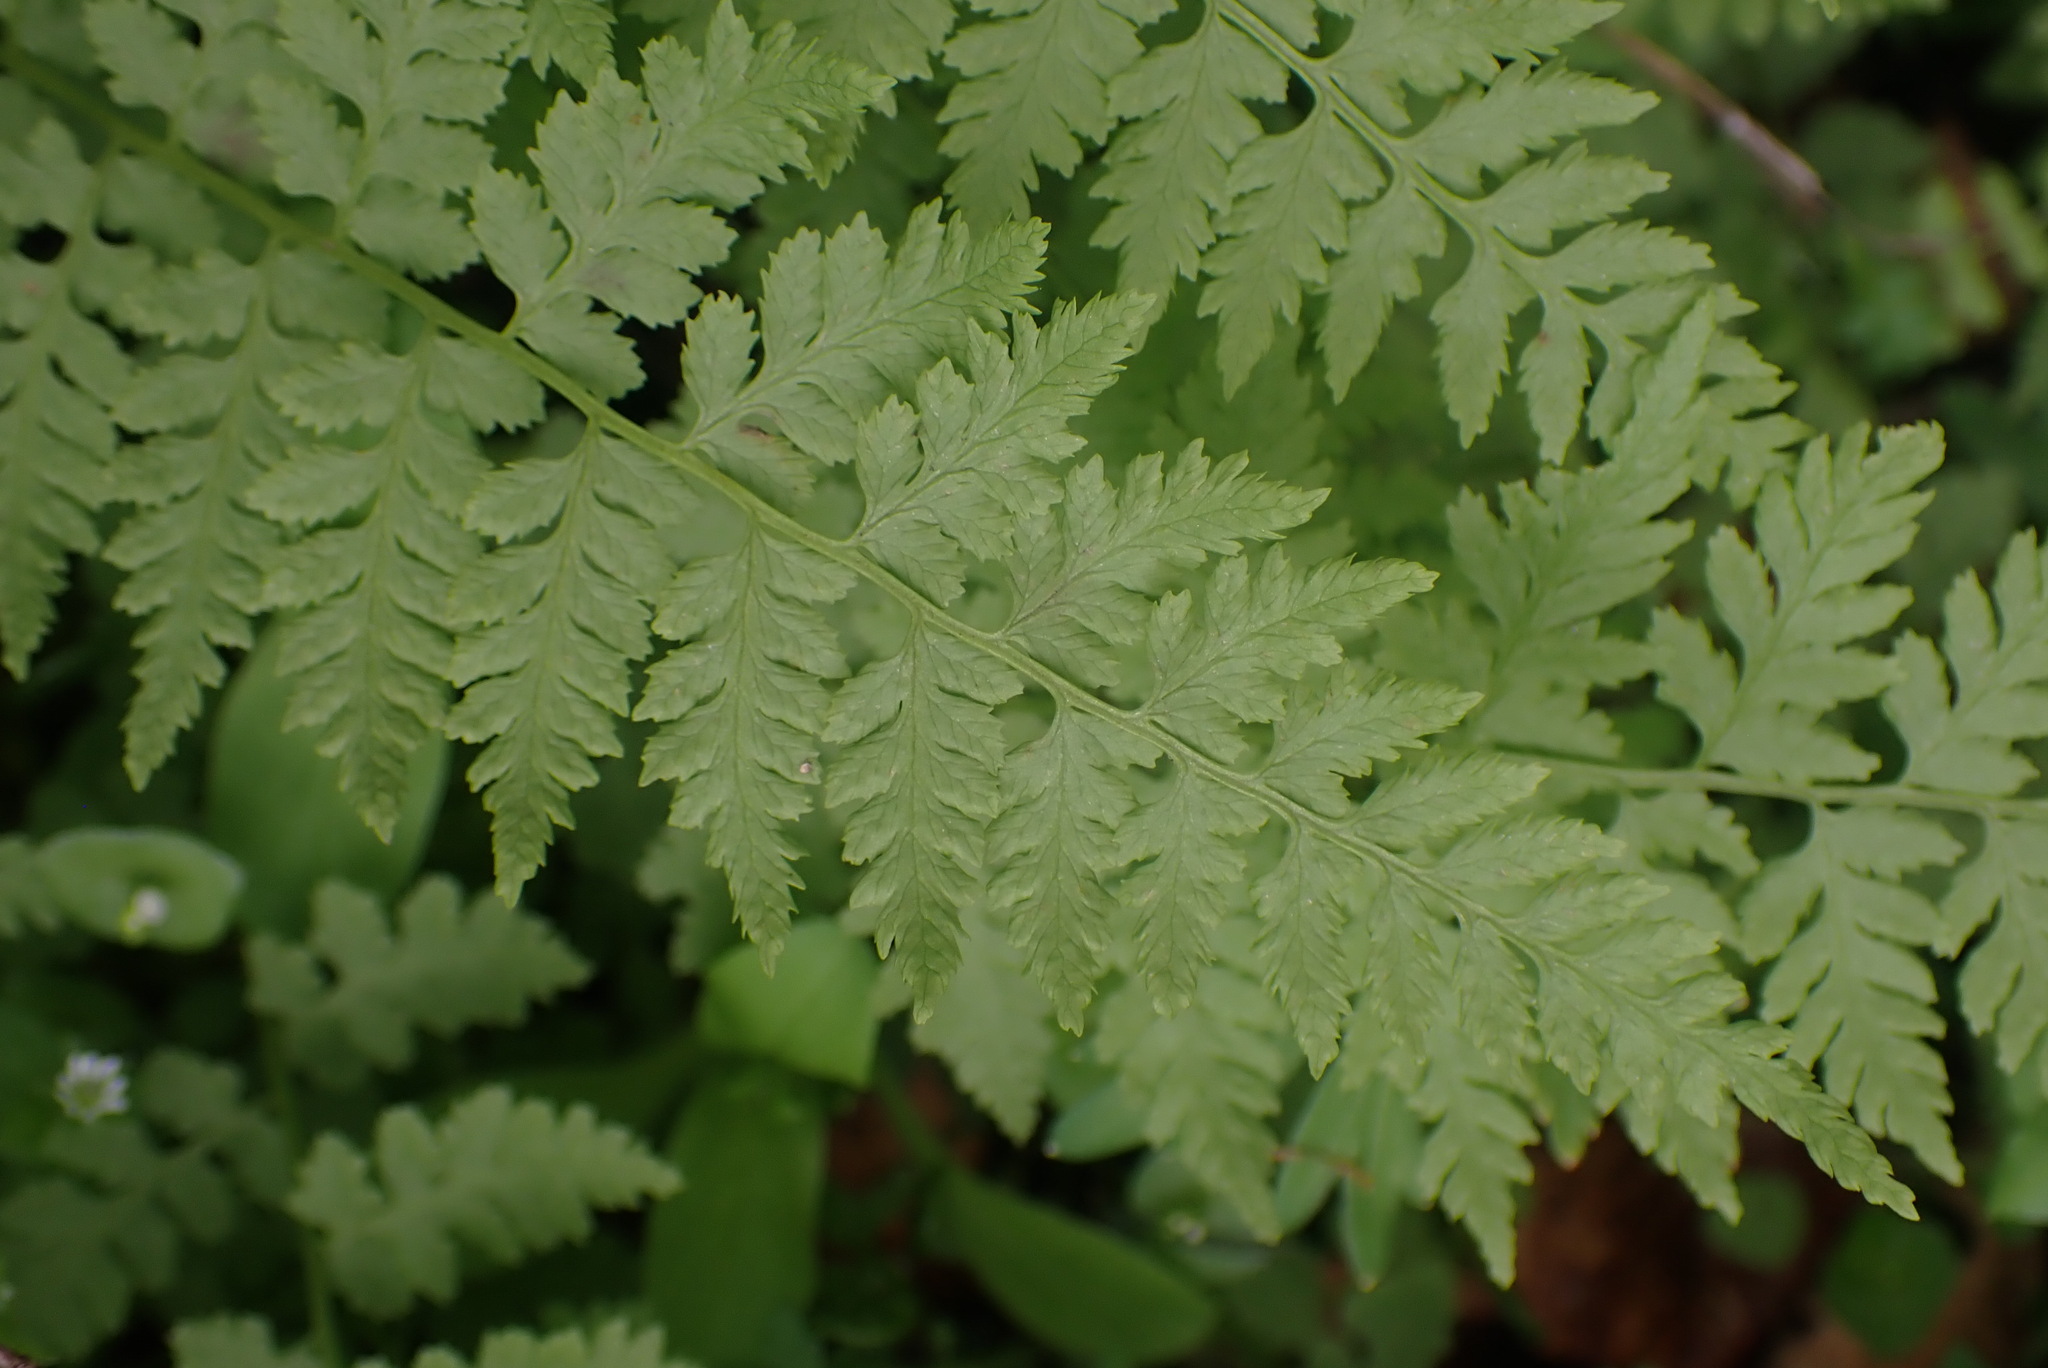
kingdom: Plantae
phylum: Tracheophyta
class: Polypodiopsida
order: Polypodiales
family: Cystopteridaceae
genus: Cystopteris
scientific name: Cystopteris fragilis
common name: Brittle bladder fern
